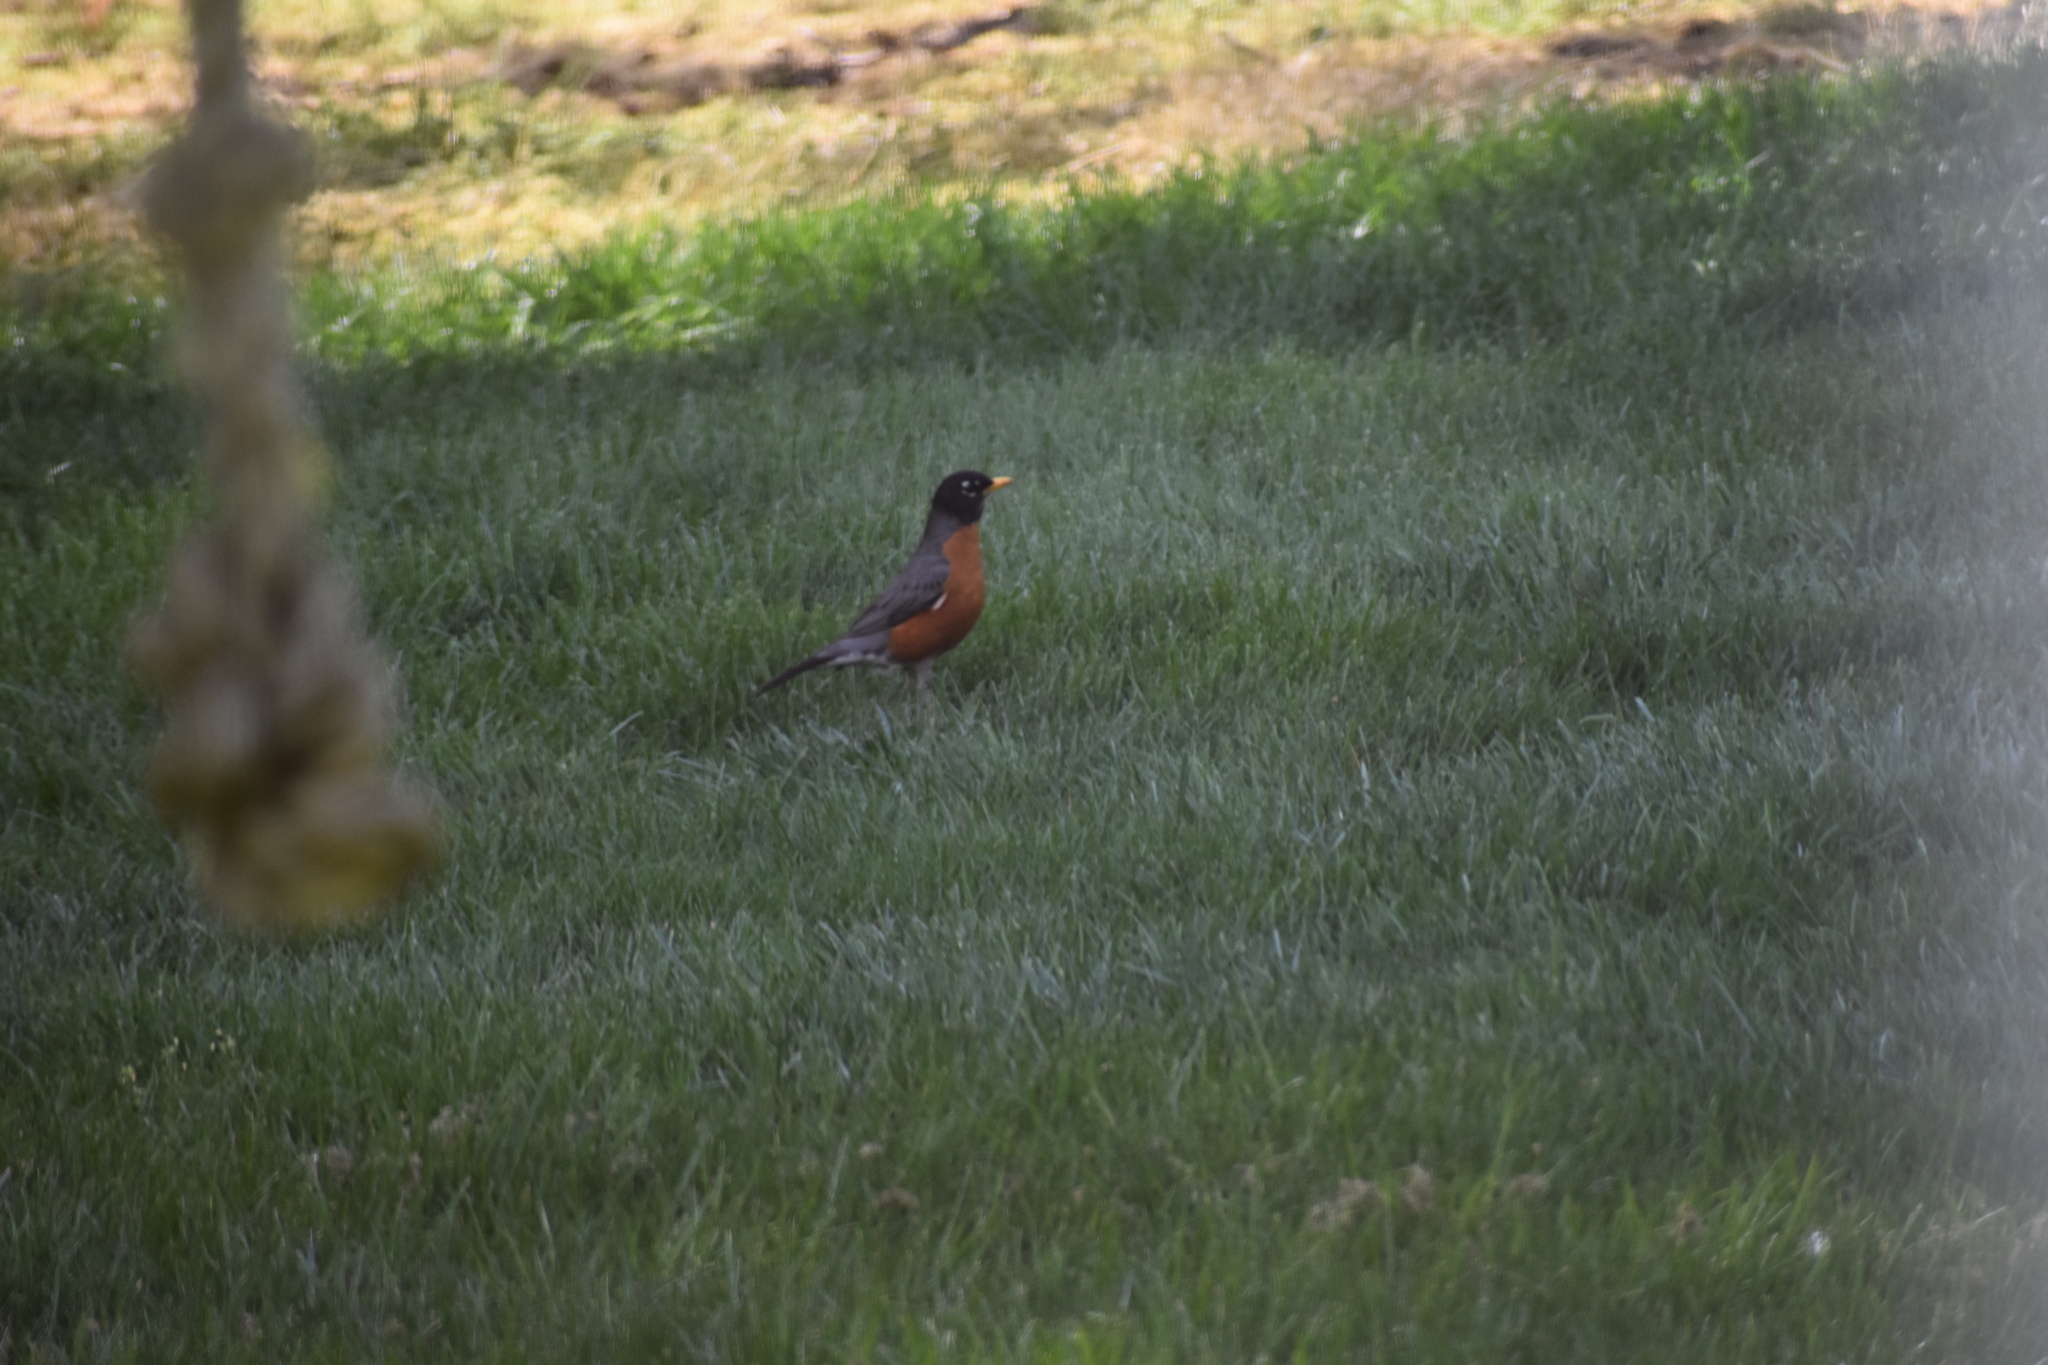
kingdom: Animalia
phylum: Chordata
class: Aves
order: Passeriformes
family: Turdidae
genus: Turdus
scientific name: Turdus migratorius
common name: American robin
